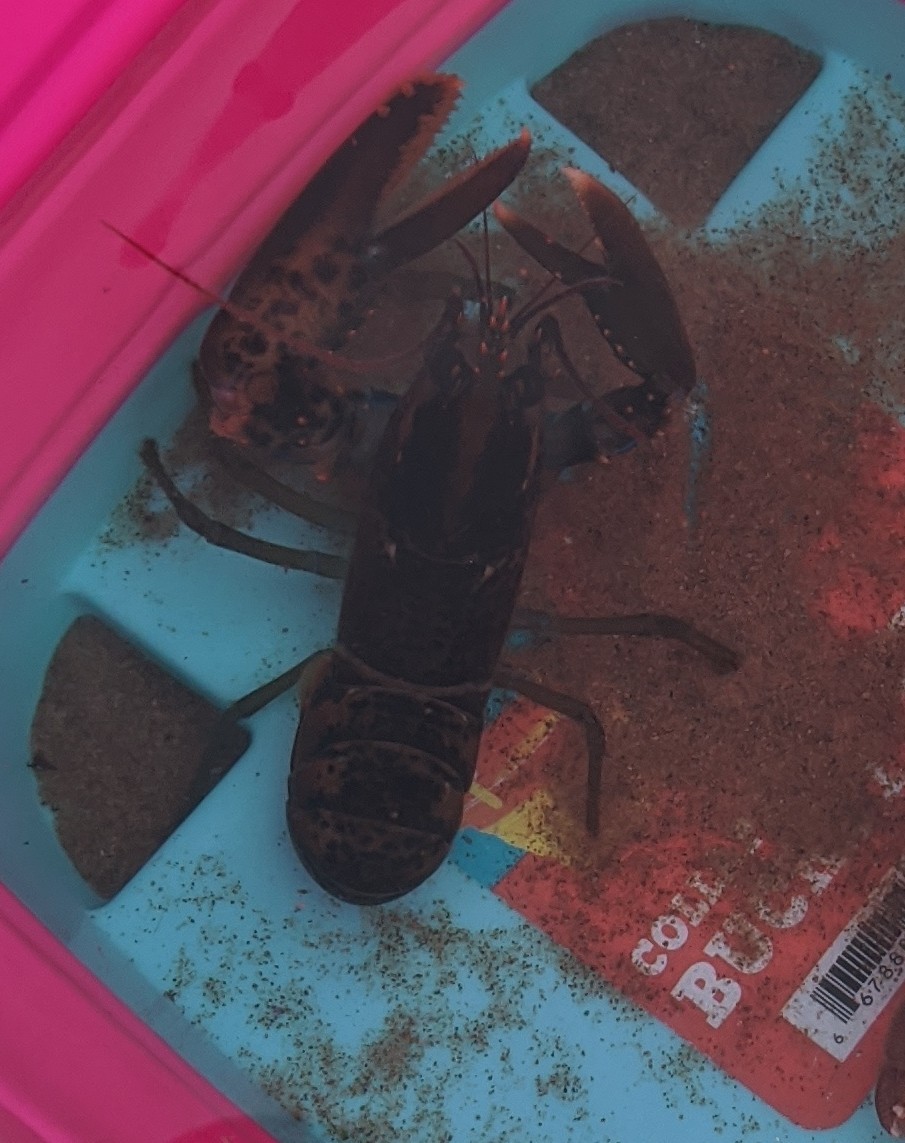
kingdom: Animalia
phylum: Arthropoda
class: Malacostraca
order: Decapoda
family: Nephropidae
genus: Homarus
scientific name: Homarus americanus
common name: American lobster
